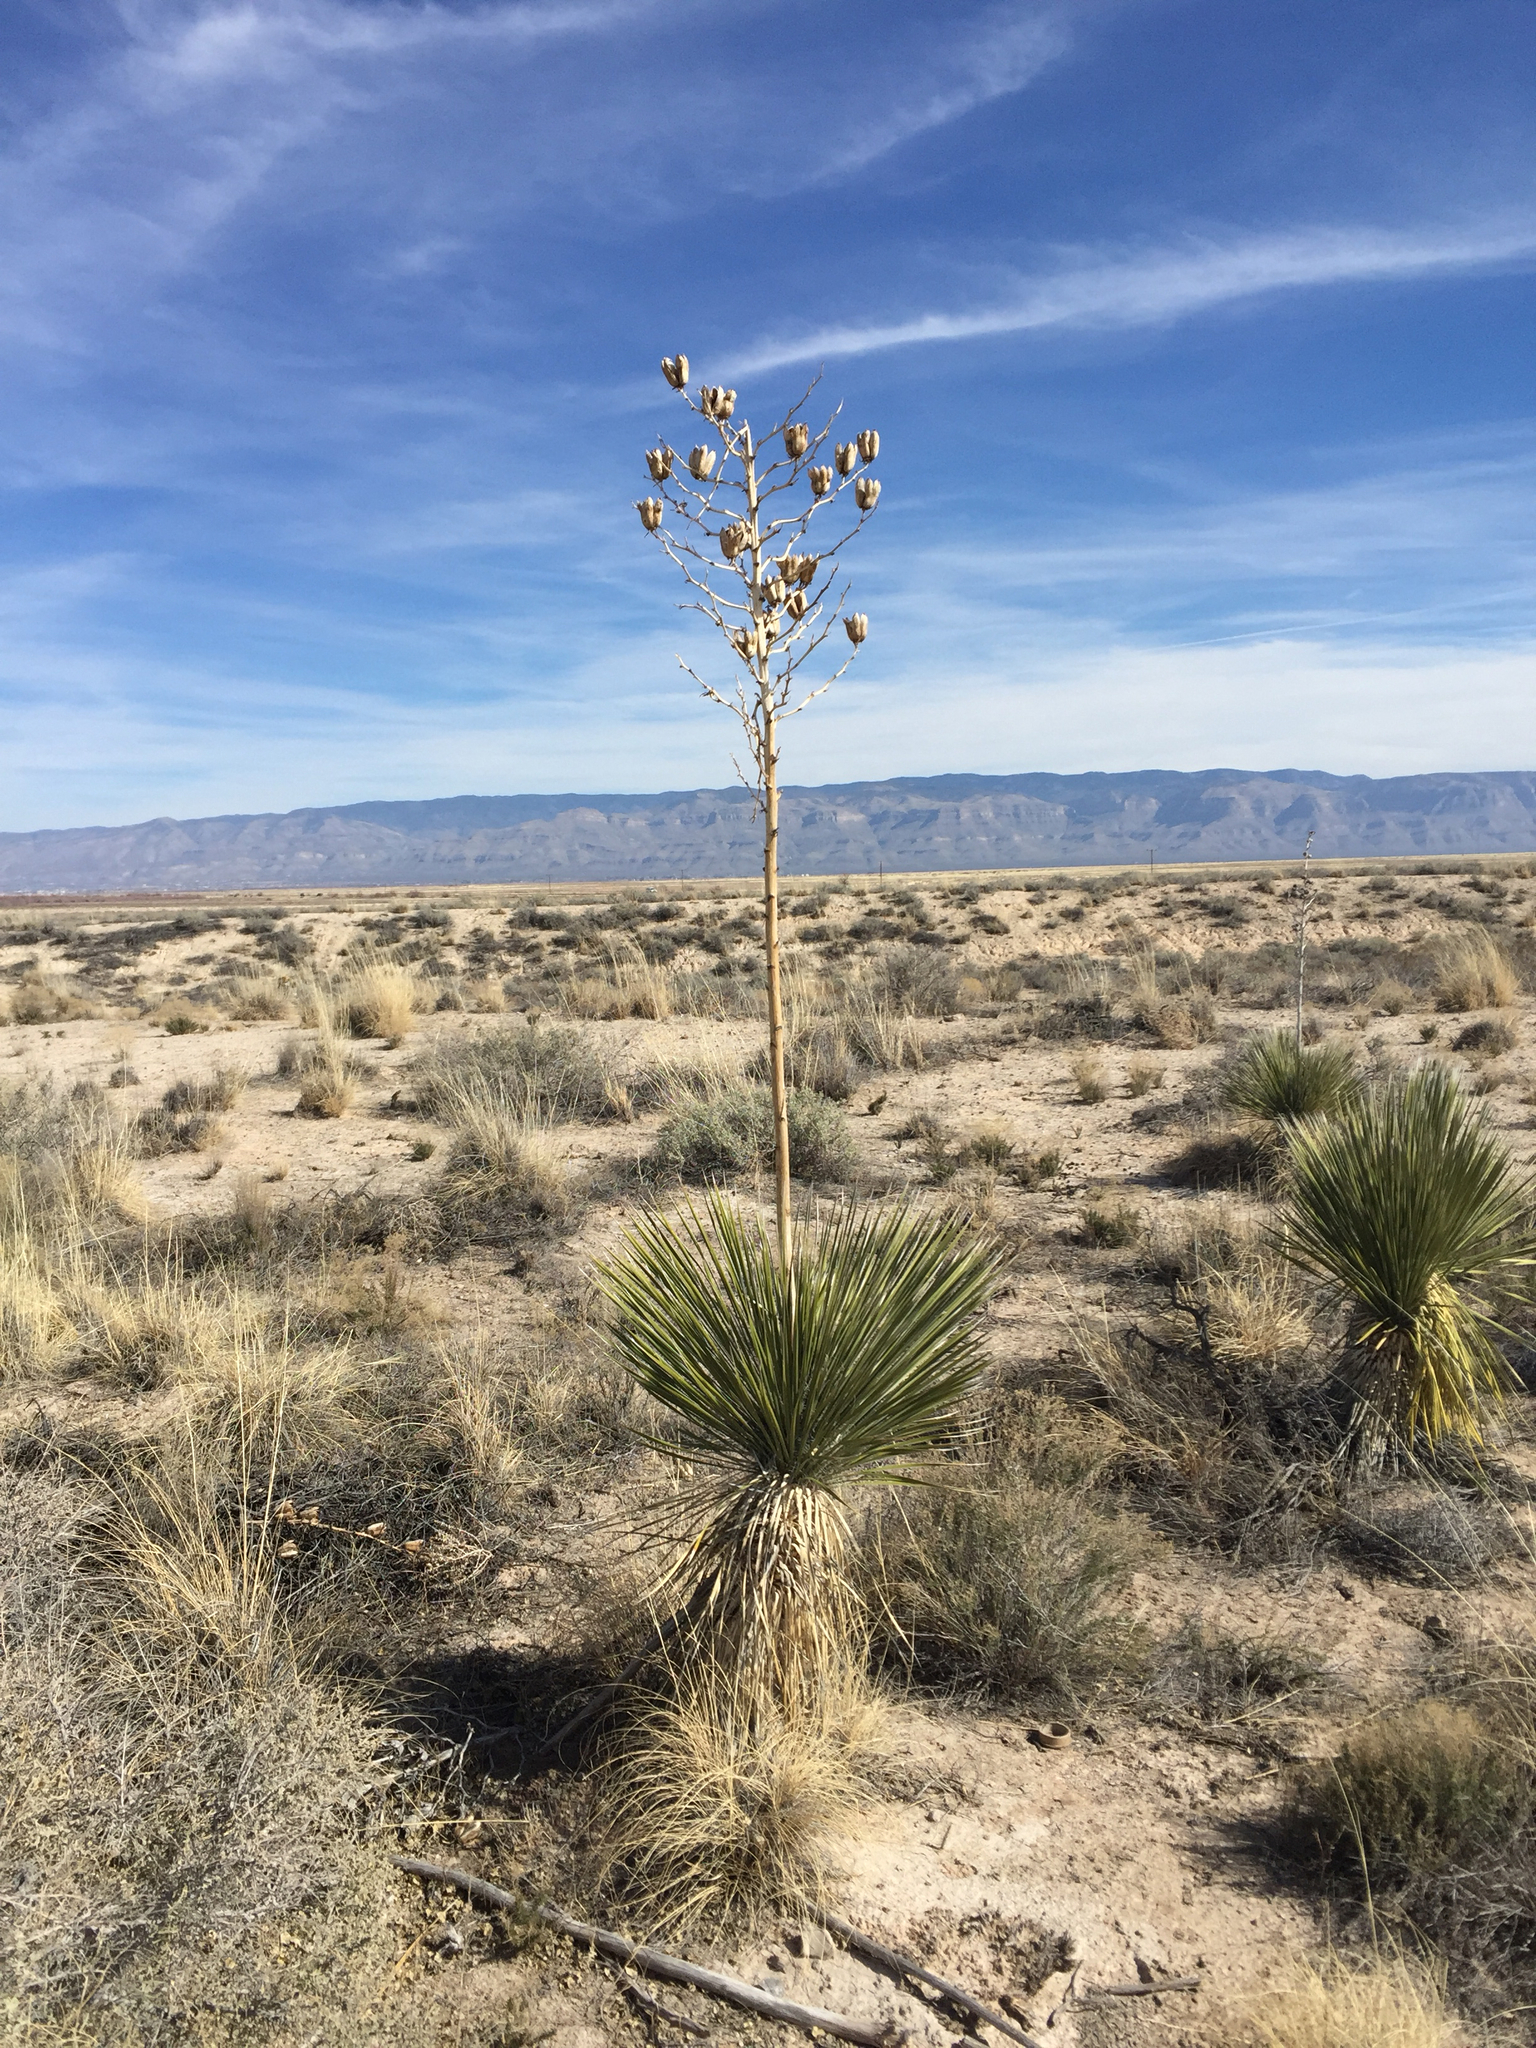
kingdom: Plantae
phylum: Tracheophyta
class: Liliopsida
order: Asparagales
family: Asparagaceae
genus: Yucca
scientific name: Yucca elata
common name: Palmella
